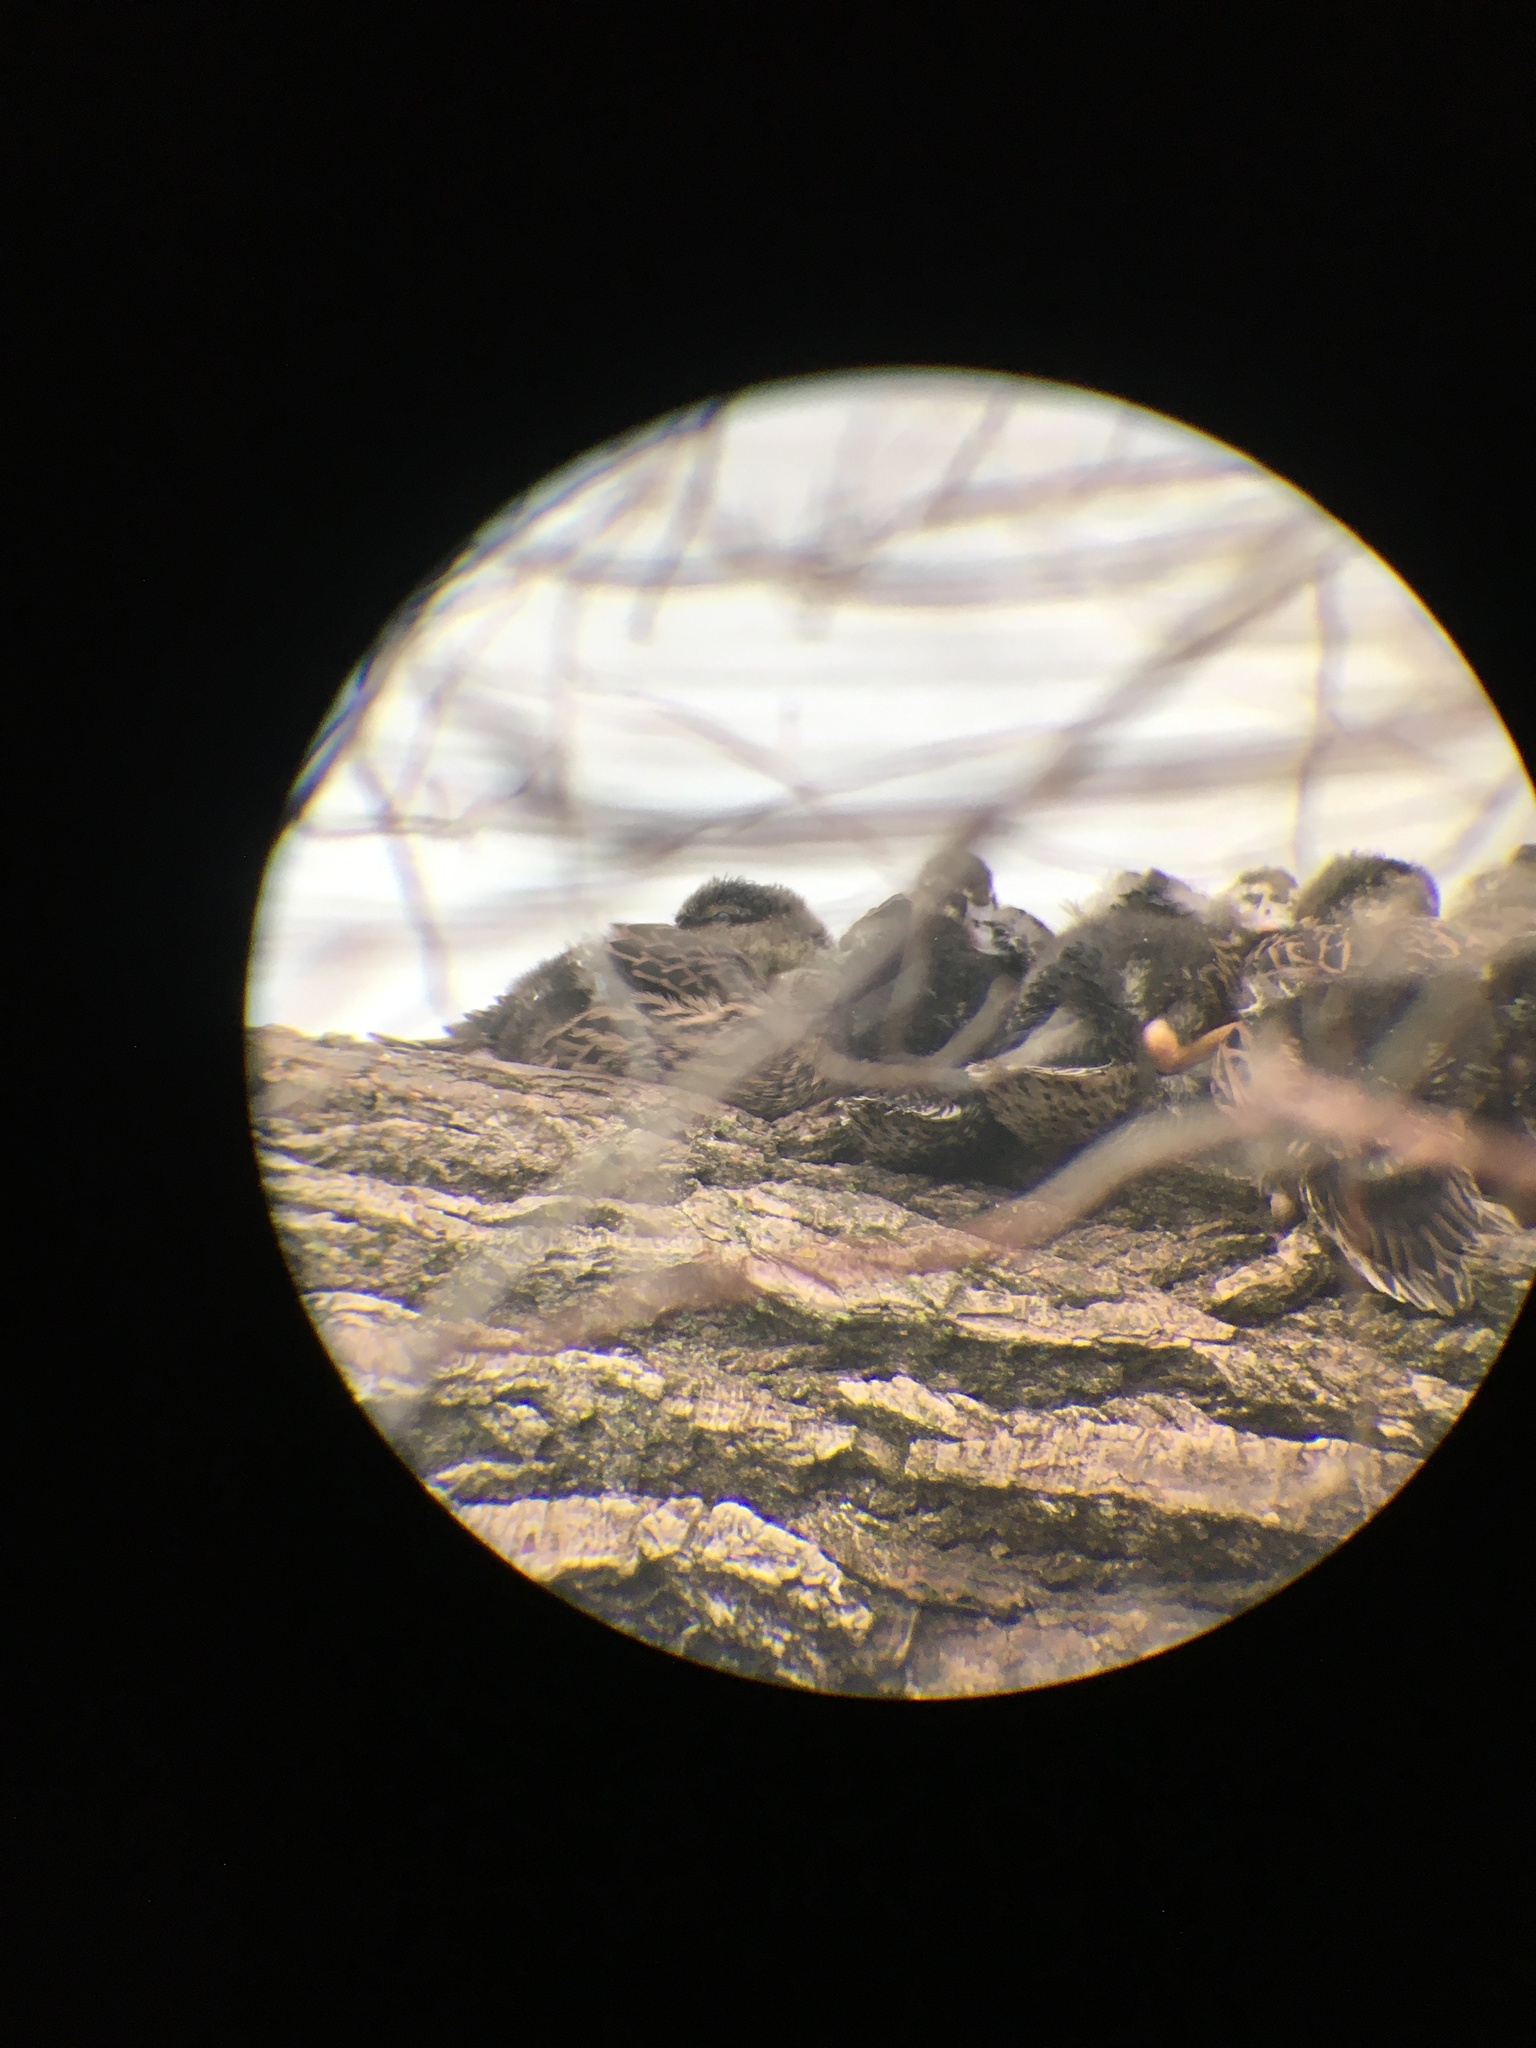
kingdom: Animalia
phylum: Chordata
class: Aves
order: Anseriformes
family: Anatidae
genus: Anas
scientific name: Anas platyrhynchos
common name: Mallard
